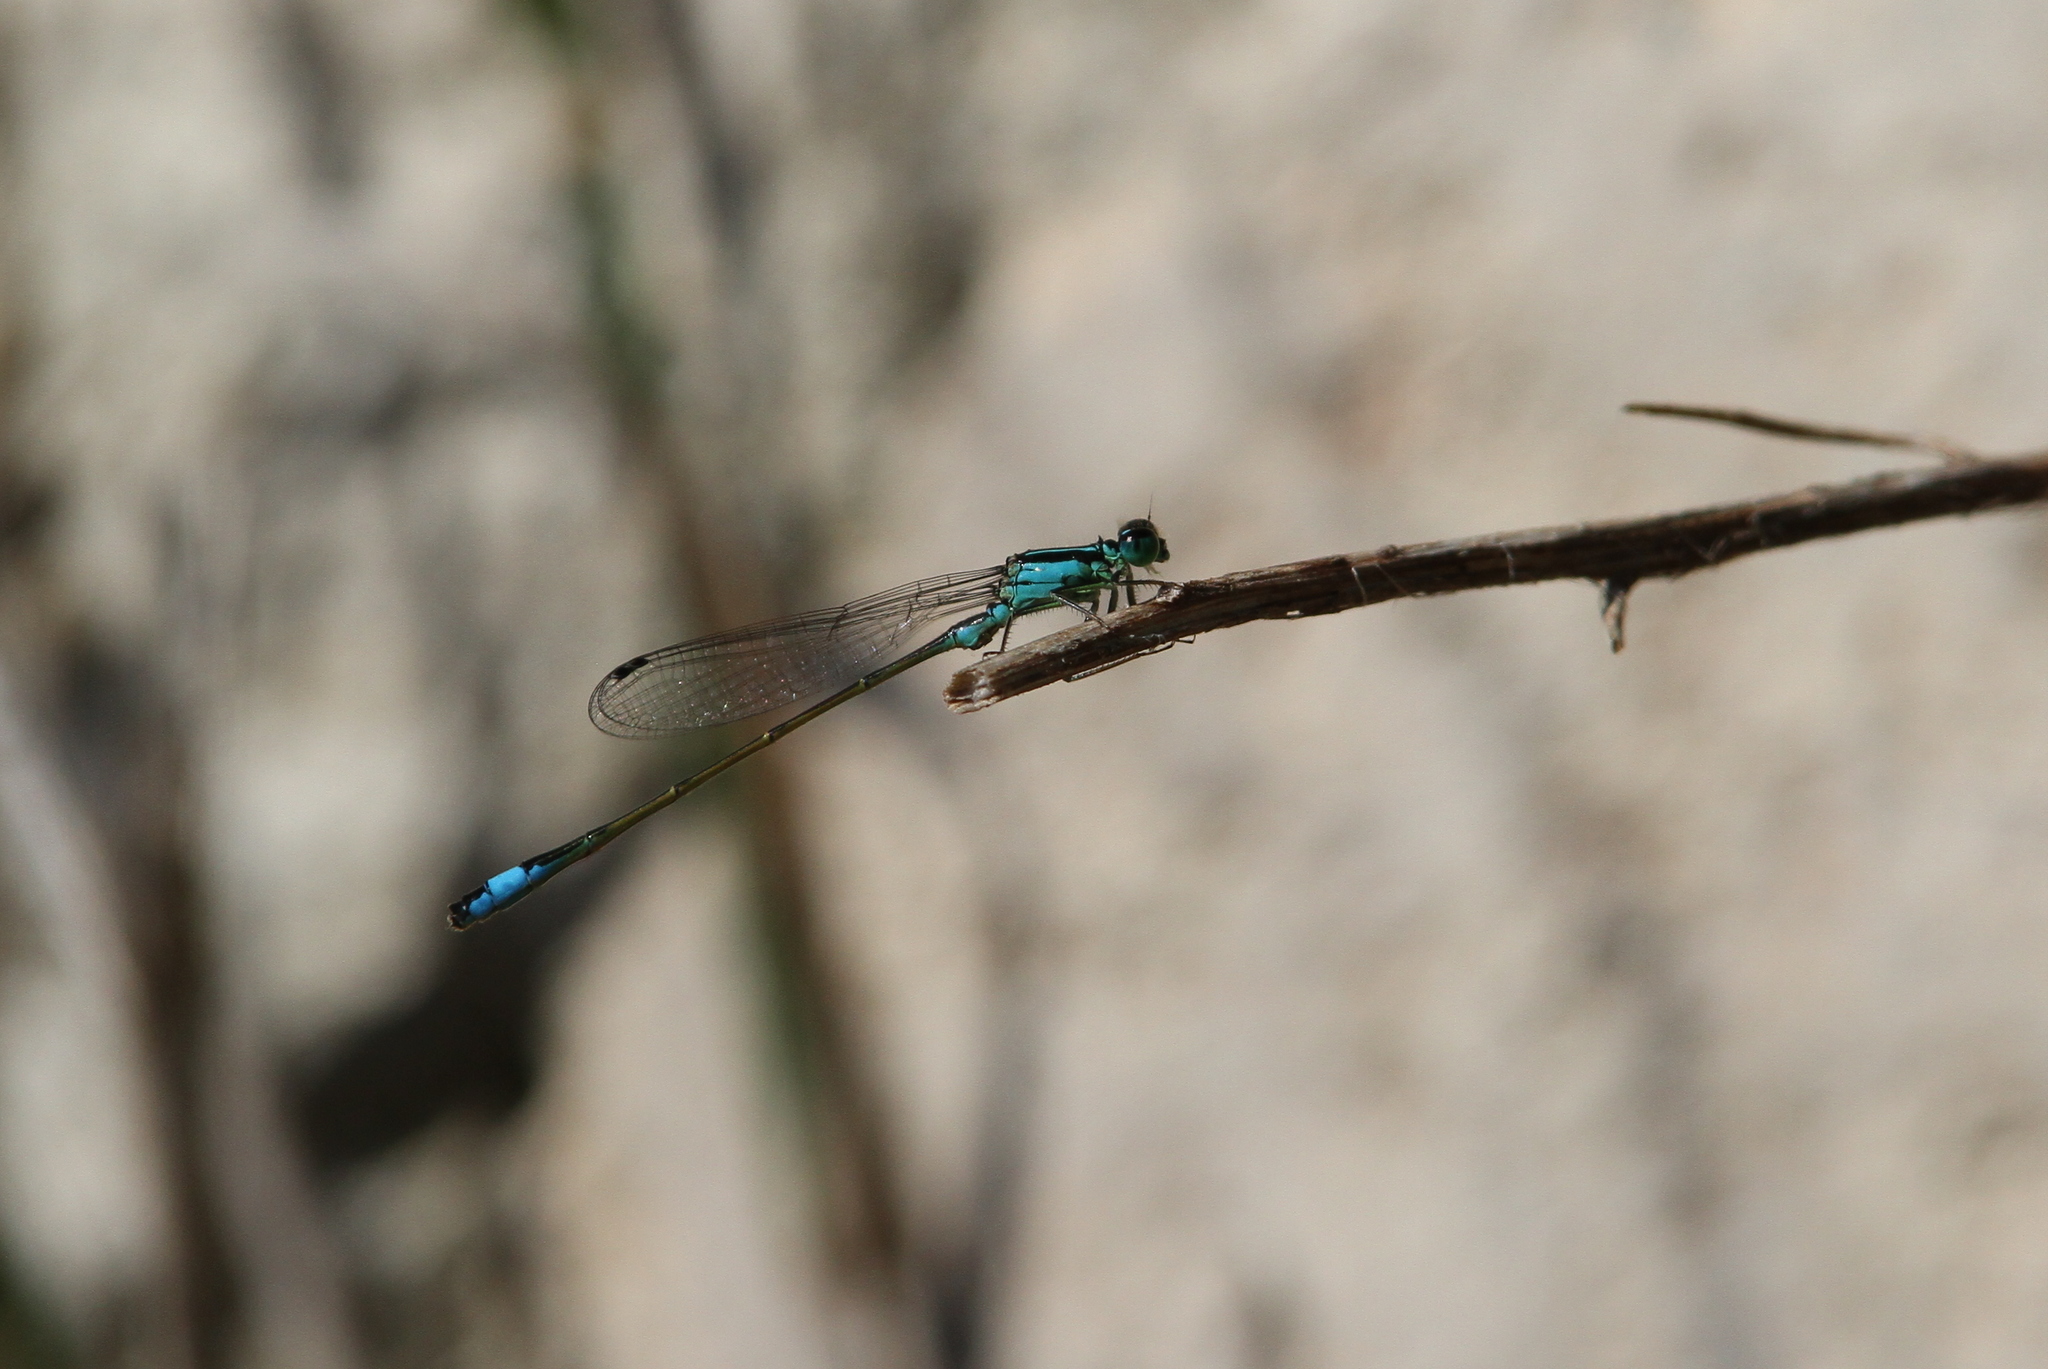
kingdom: Animalia
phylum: Arthropoda
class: Insecta
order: Odonata
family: Coenagrionidae
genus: Ischnura
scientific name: Ischnura elegans
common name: Blue-tailed damselfly
